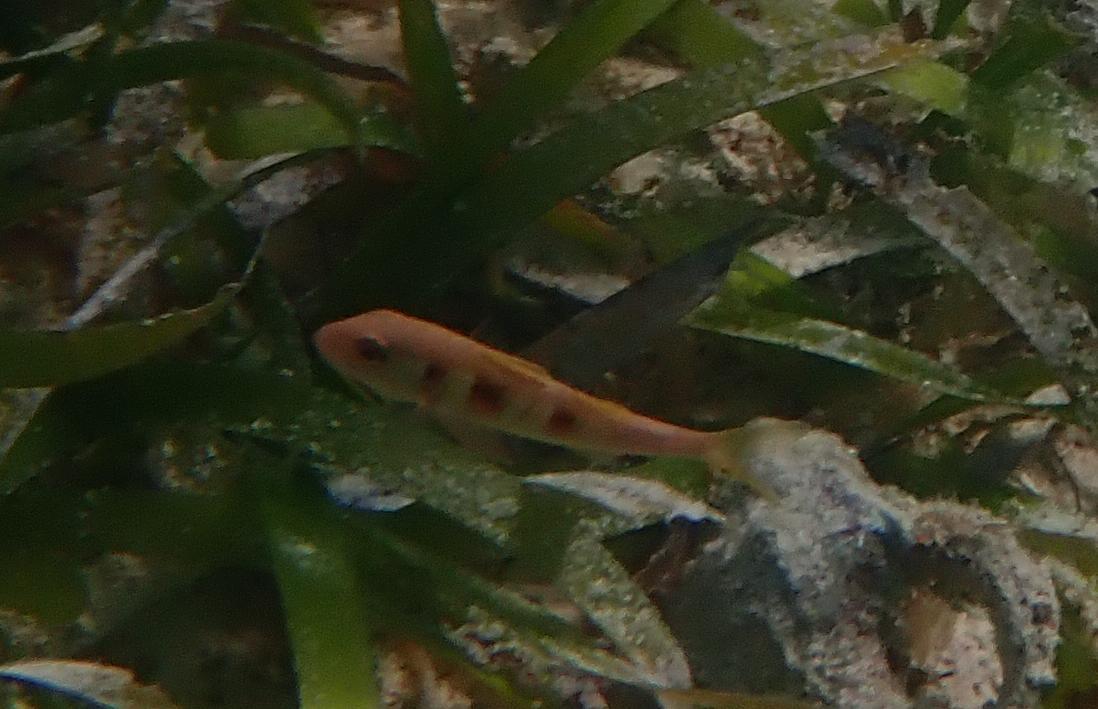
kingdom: Animalia
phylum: Chordata
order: Perciformes
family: Mullidae
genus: Pseudupeneus
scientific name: Pseudupeneus maculatus
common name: Spotted goatfish
